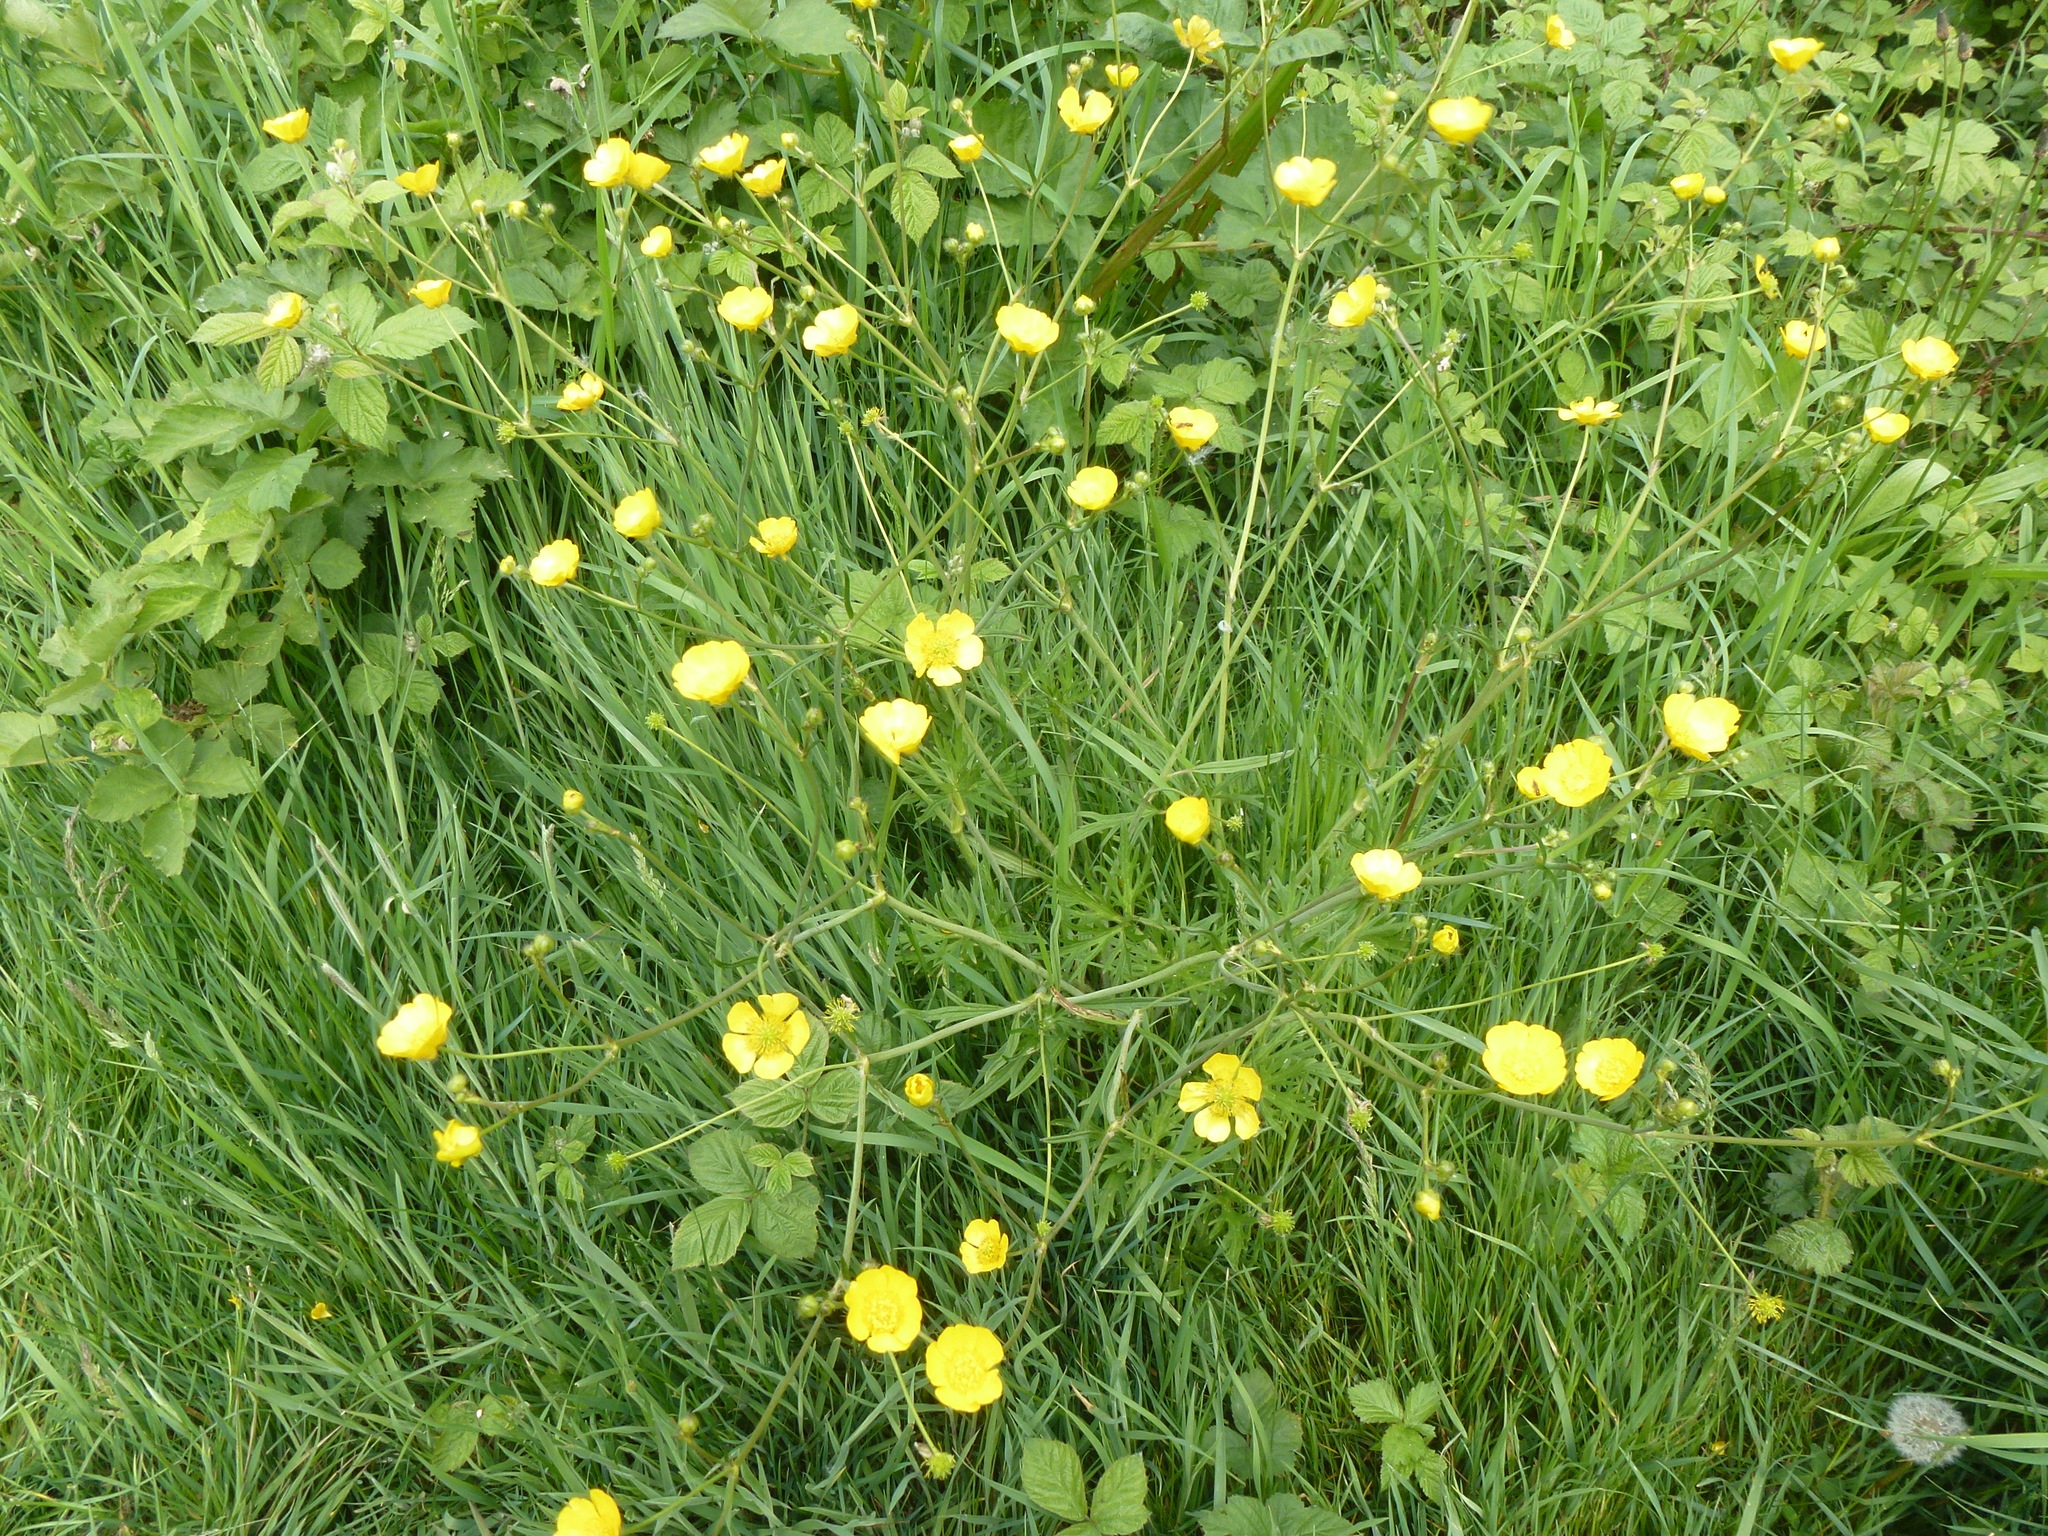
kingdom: Plantae
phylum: Tracheophyta
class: Magnoliopsida
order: Ranunculales
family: Ranunculaceae
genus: Ranunculus
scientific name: Ranunculus acris
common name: Meadow buttercup
